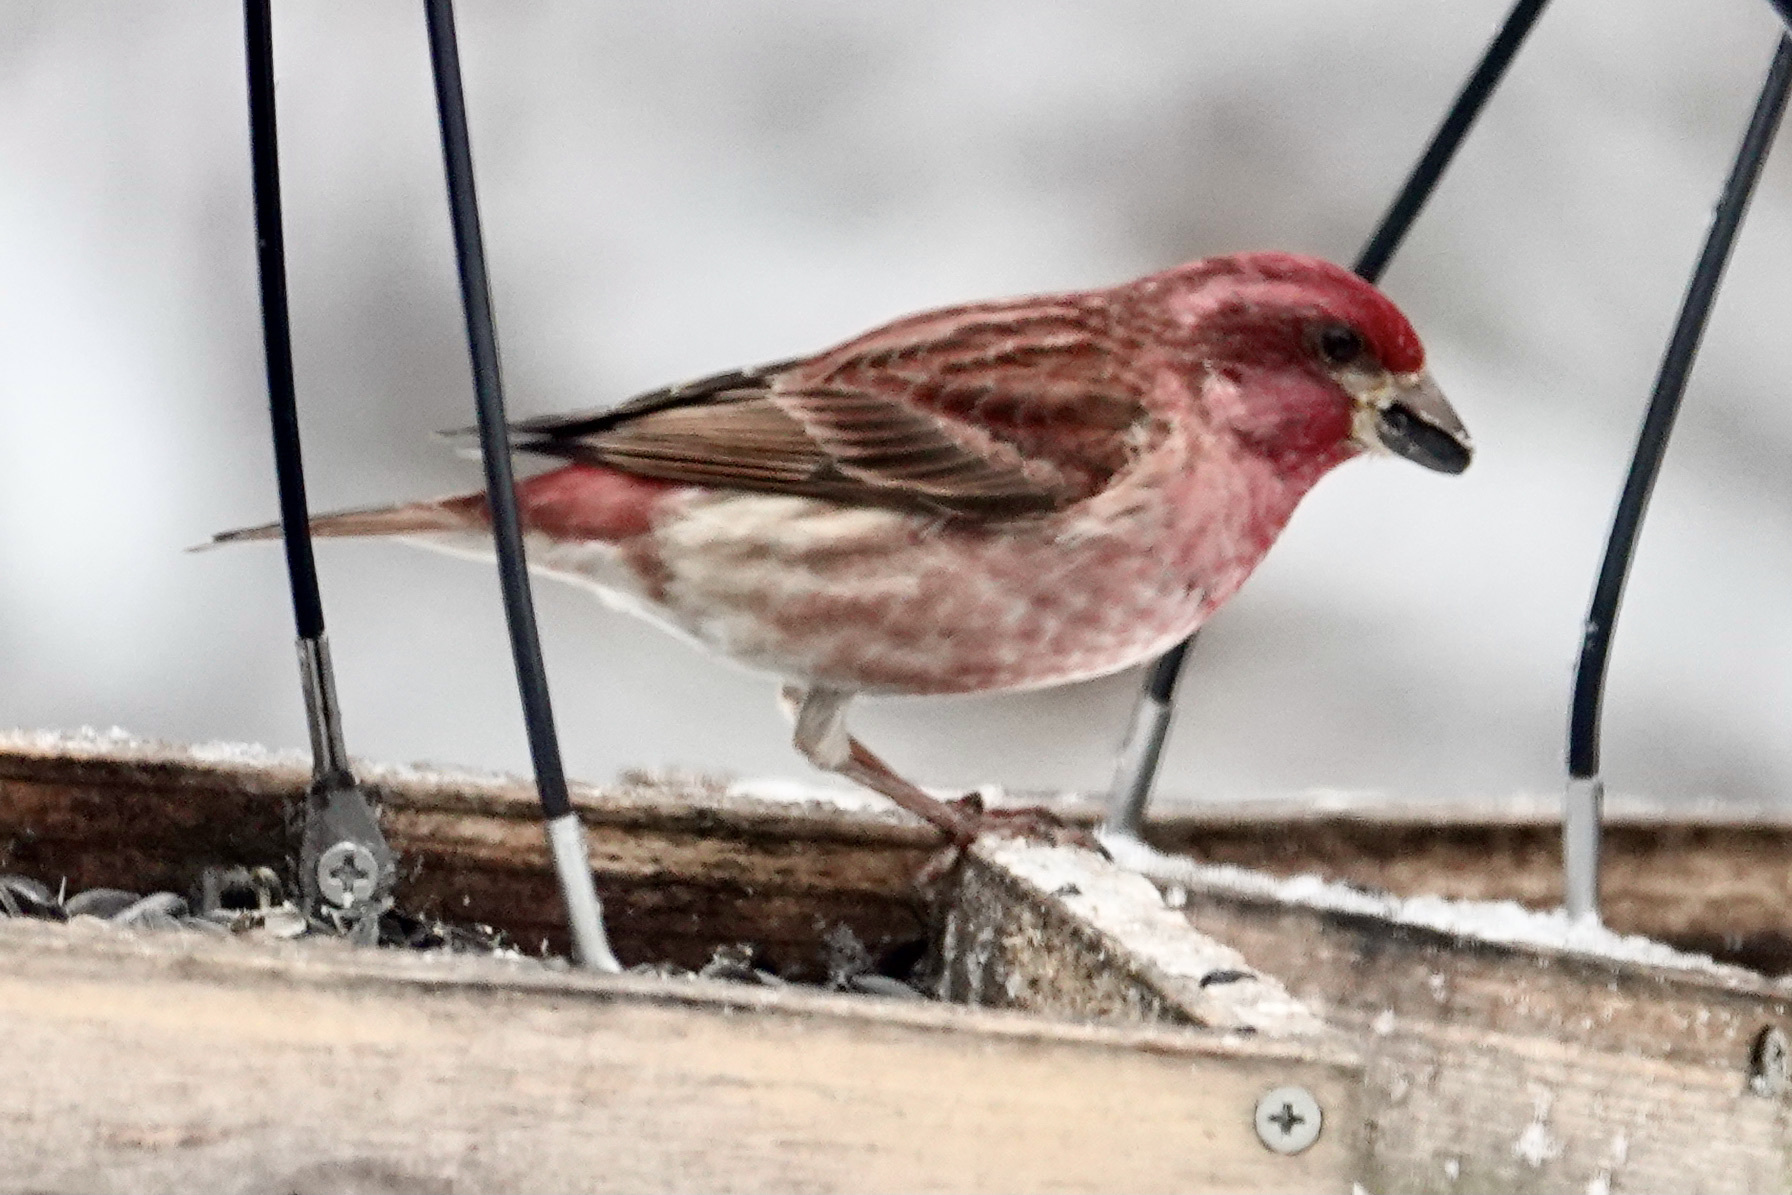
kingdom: Animalia
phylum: Chordata
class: Aves
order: Passeriformes
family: Fringillidae
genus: Haemorhous
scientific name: Haemorhous purpureus
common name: Purple finch
